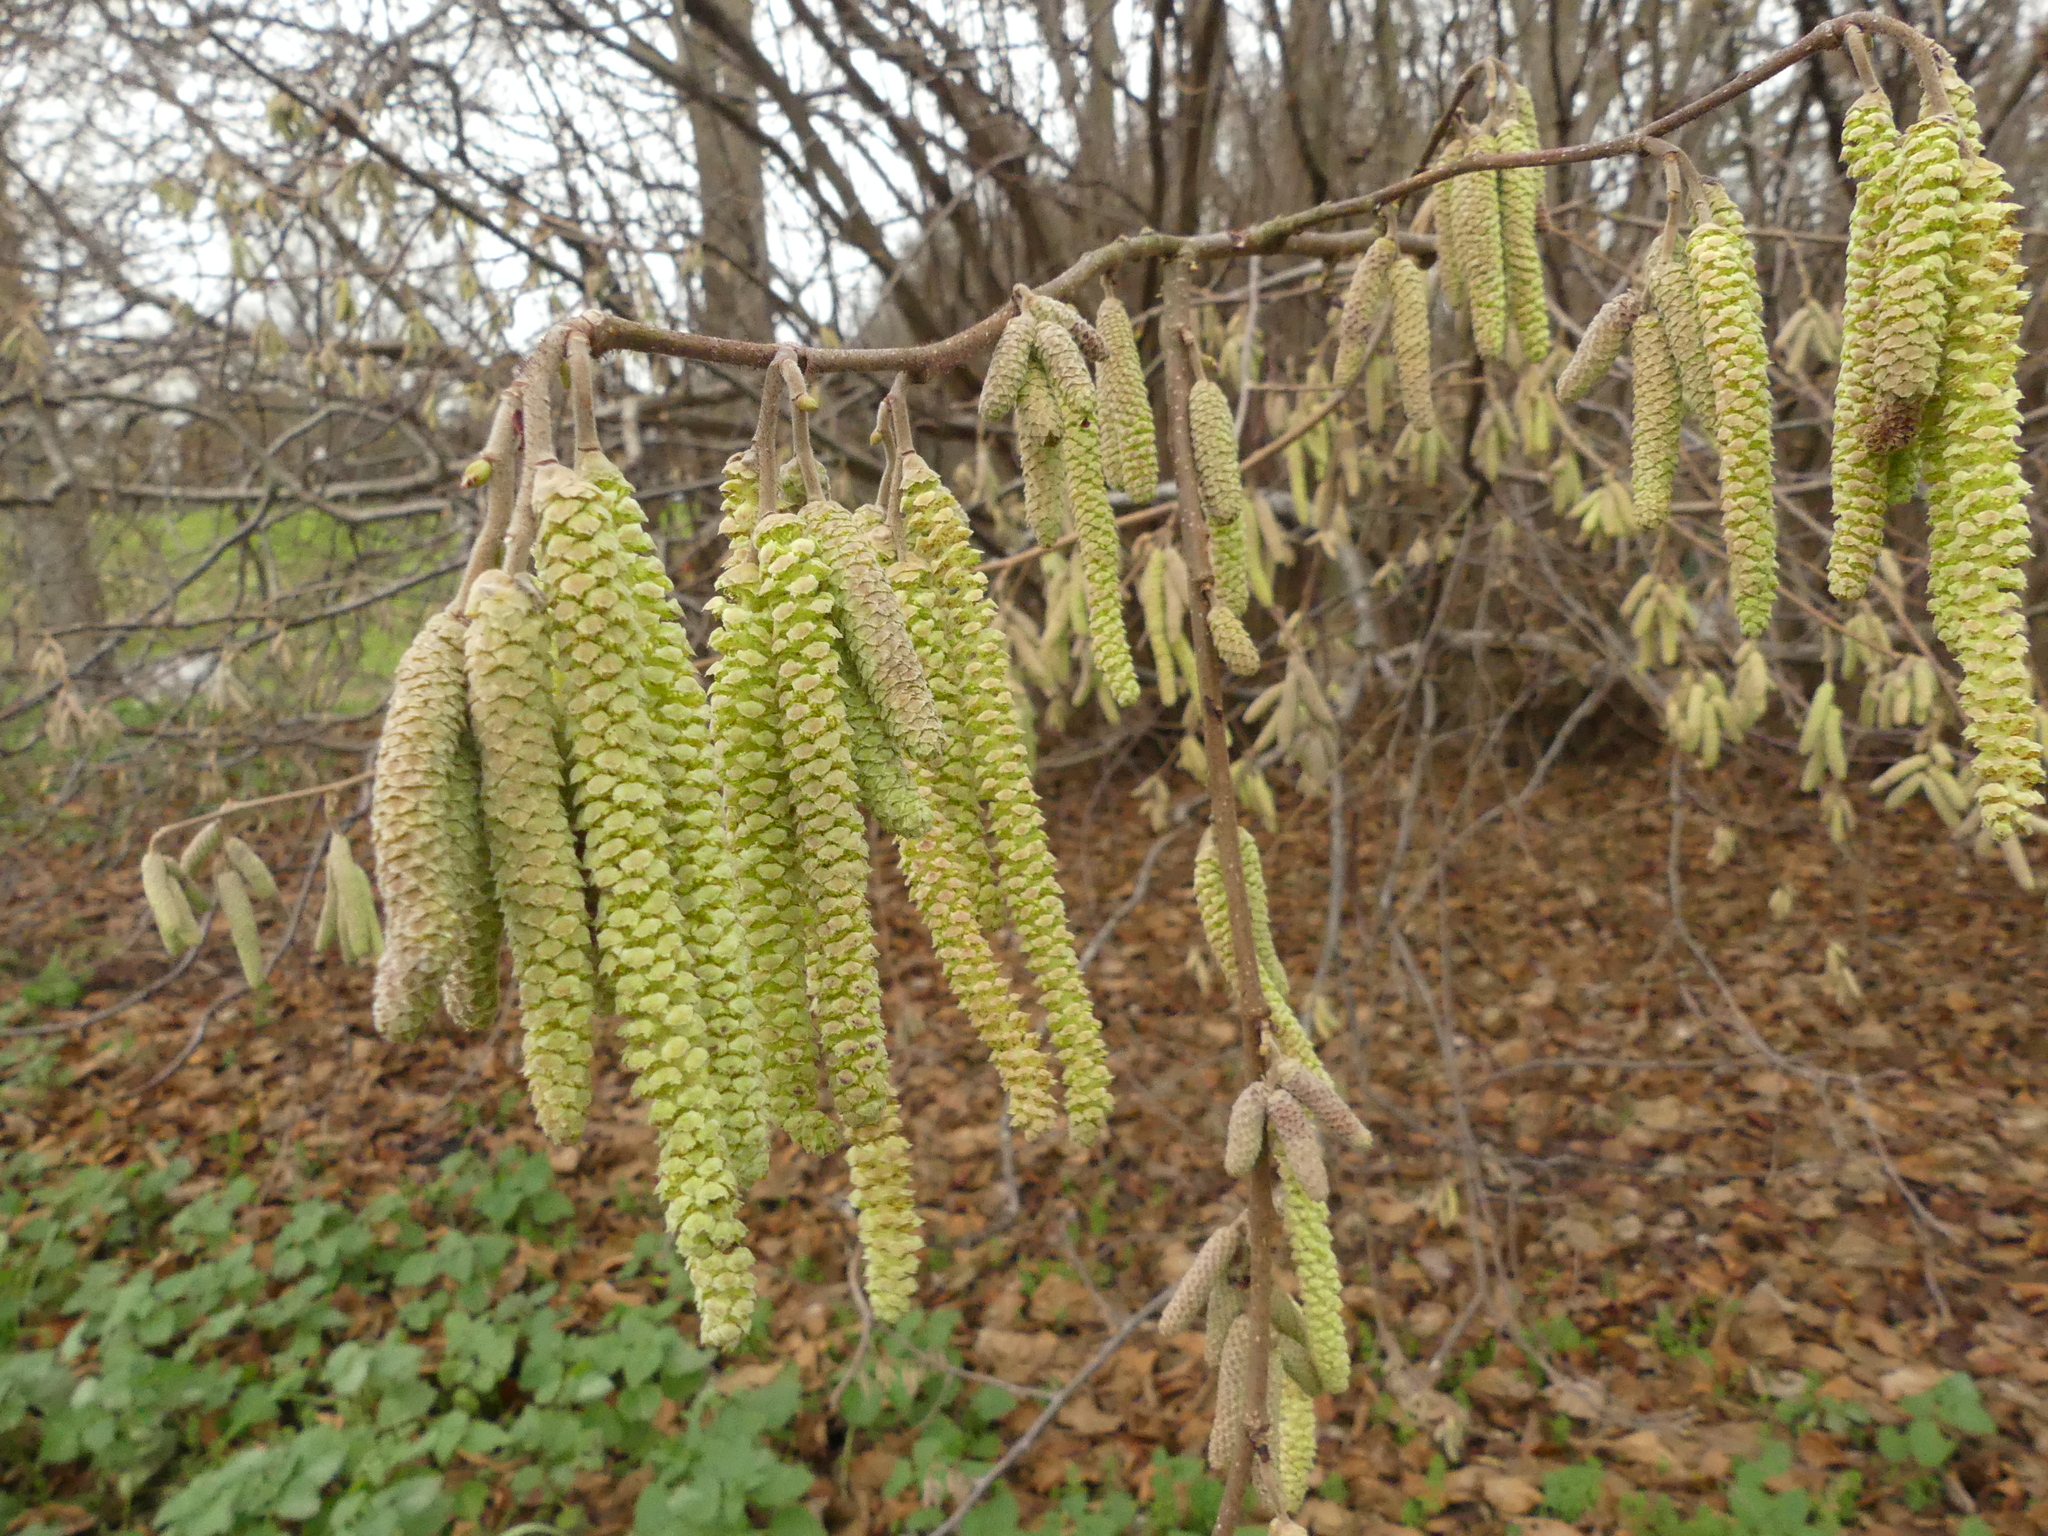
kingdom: Plantae
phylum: Tracheophyta
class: Magnoliopsida
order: Fagales
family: Betulaceae
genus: Corylus
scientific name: Corylus avellana
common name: European hazel
